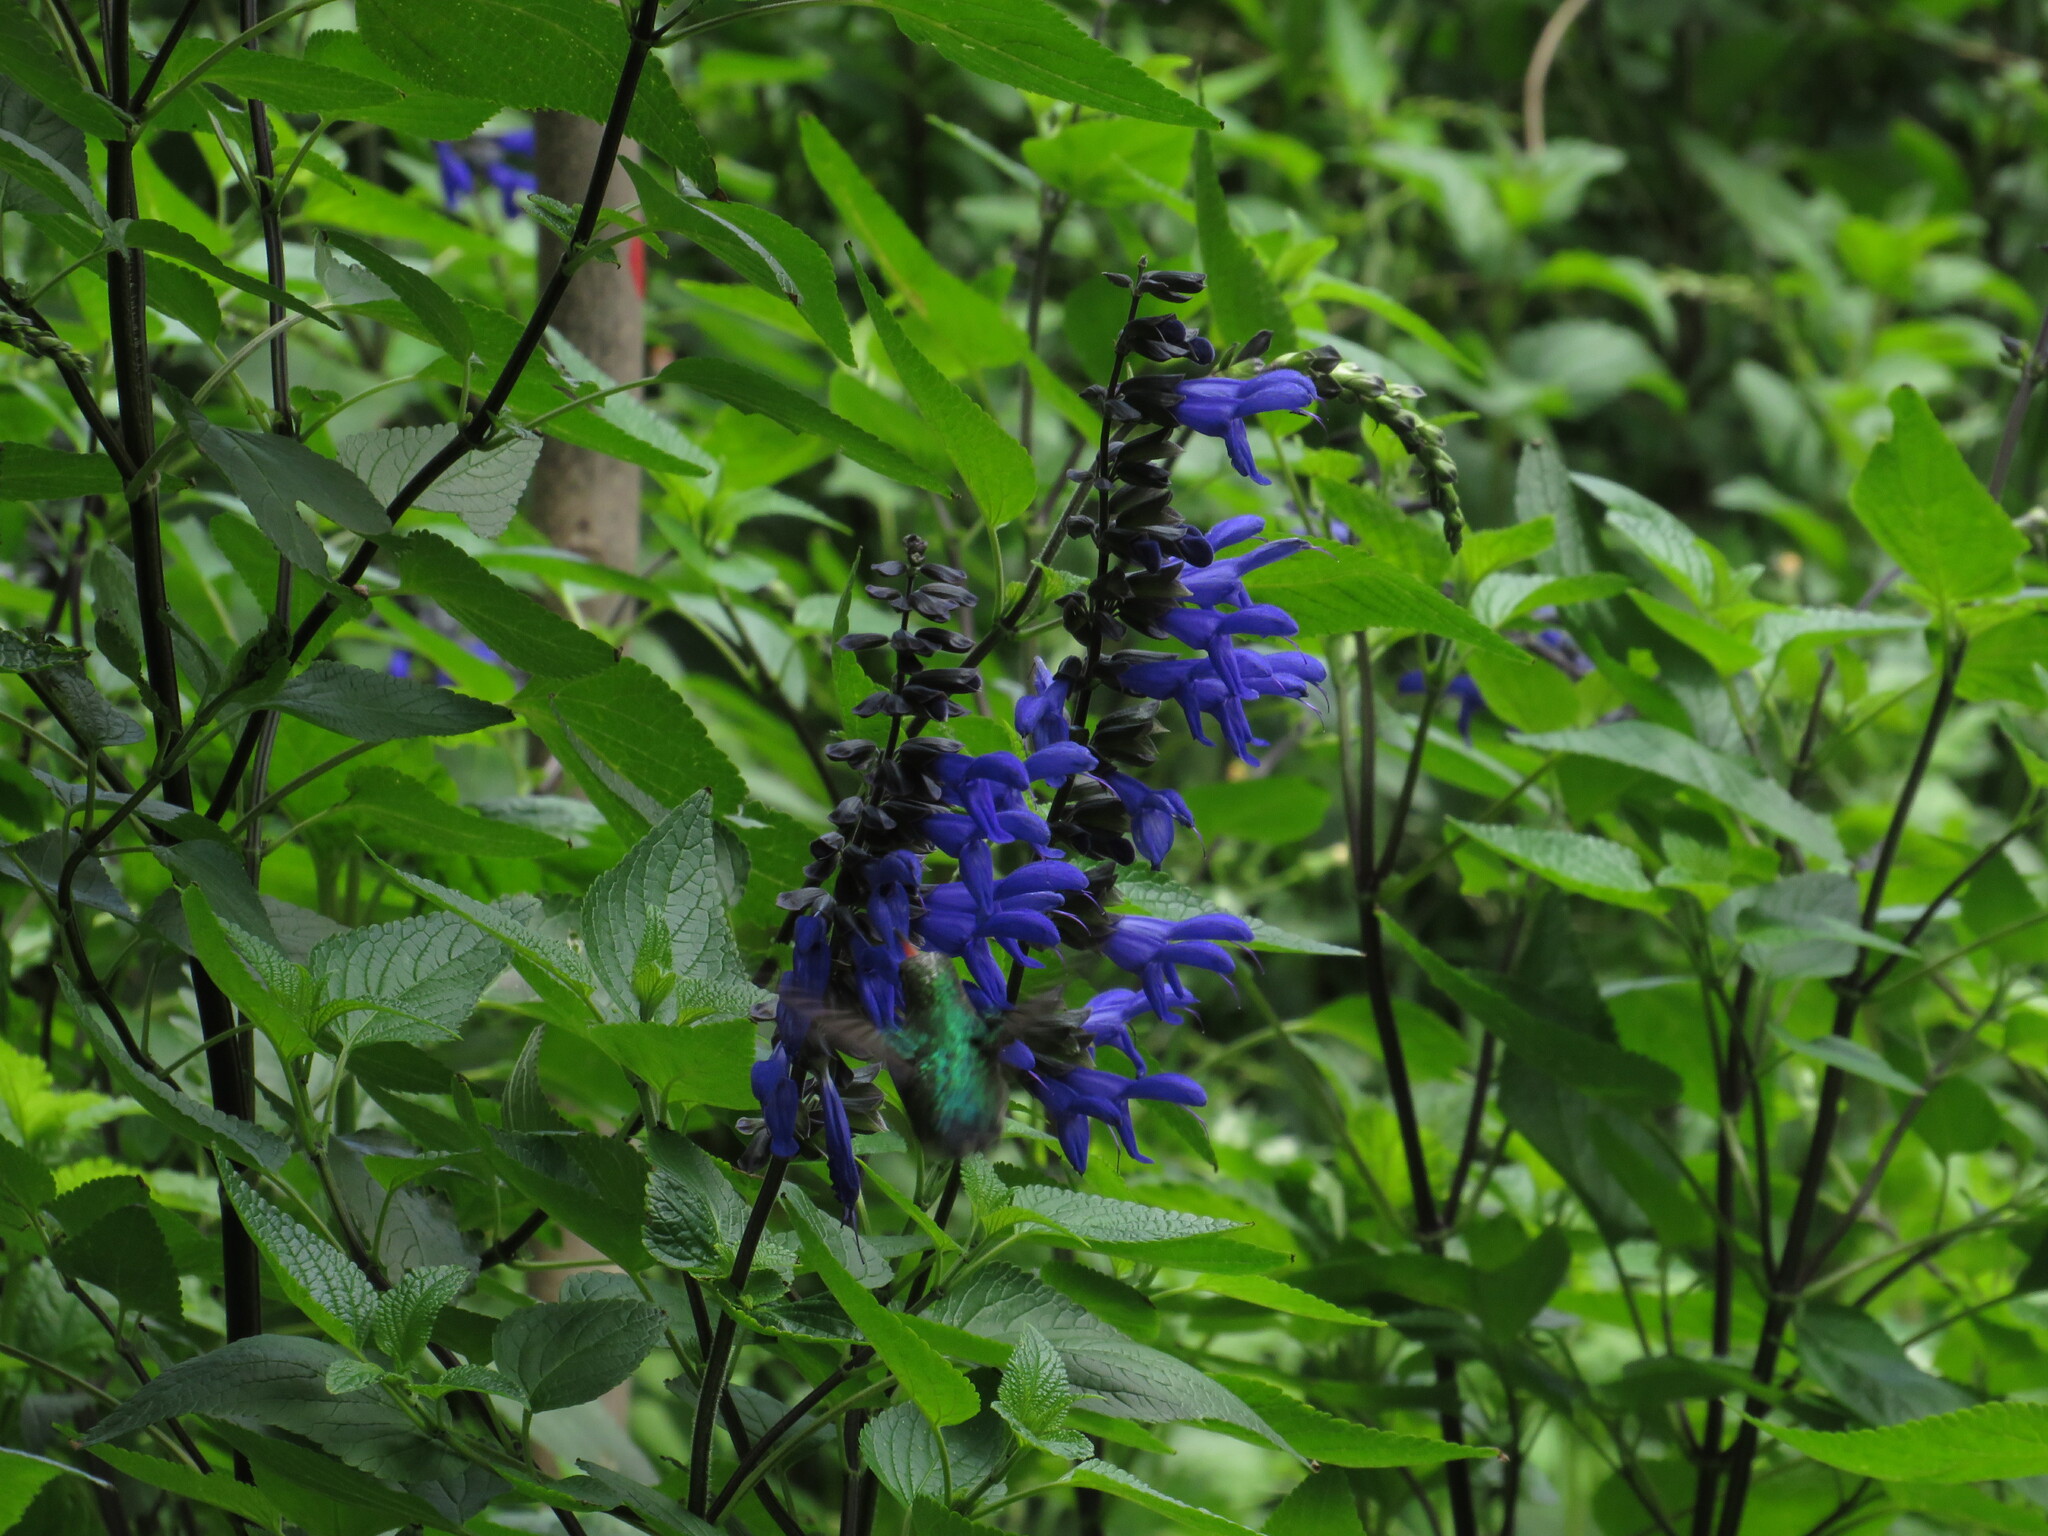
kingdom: Animalia
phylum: Chordata
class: Aves
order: Apodiformes
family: Trochilidae
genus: Chlorostilbon
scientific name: Chlorostilbon lucidus
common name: Glittering-bellied emerald
